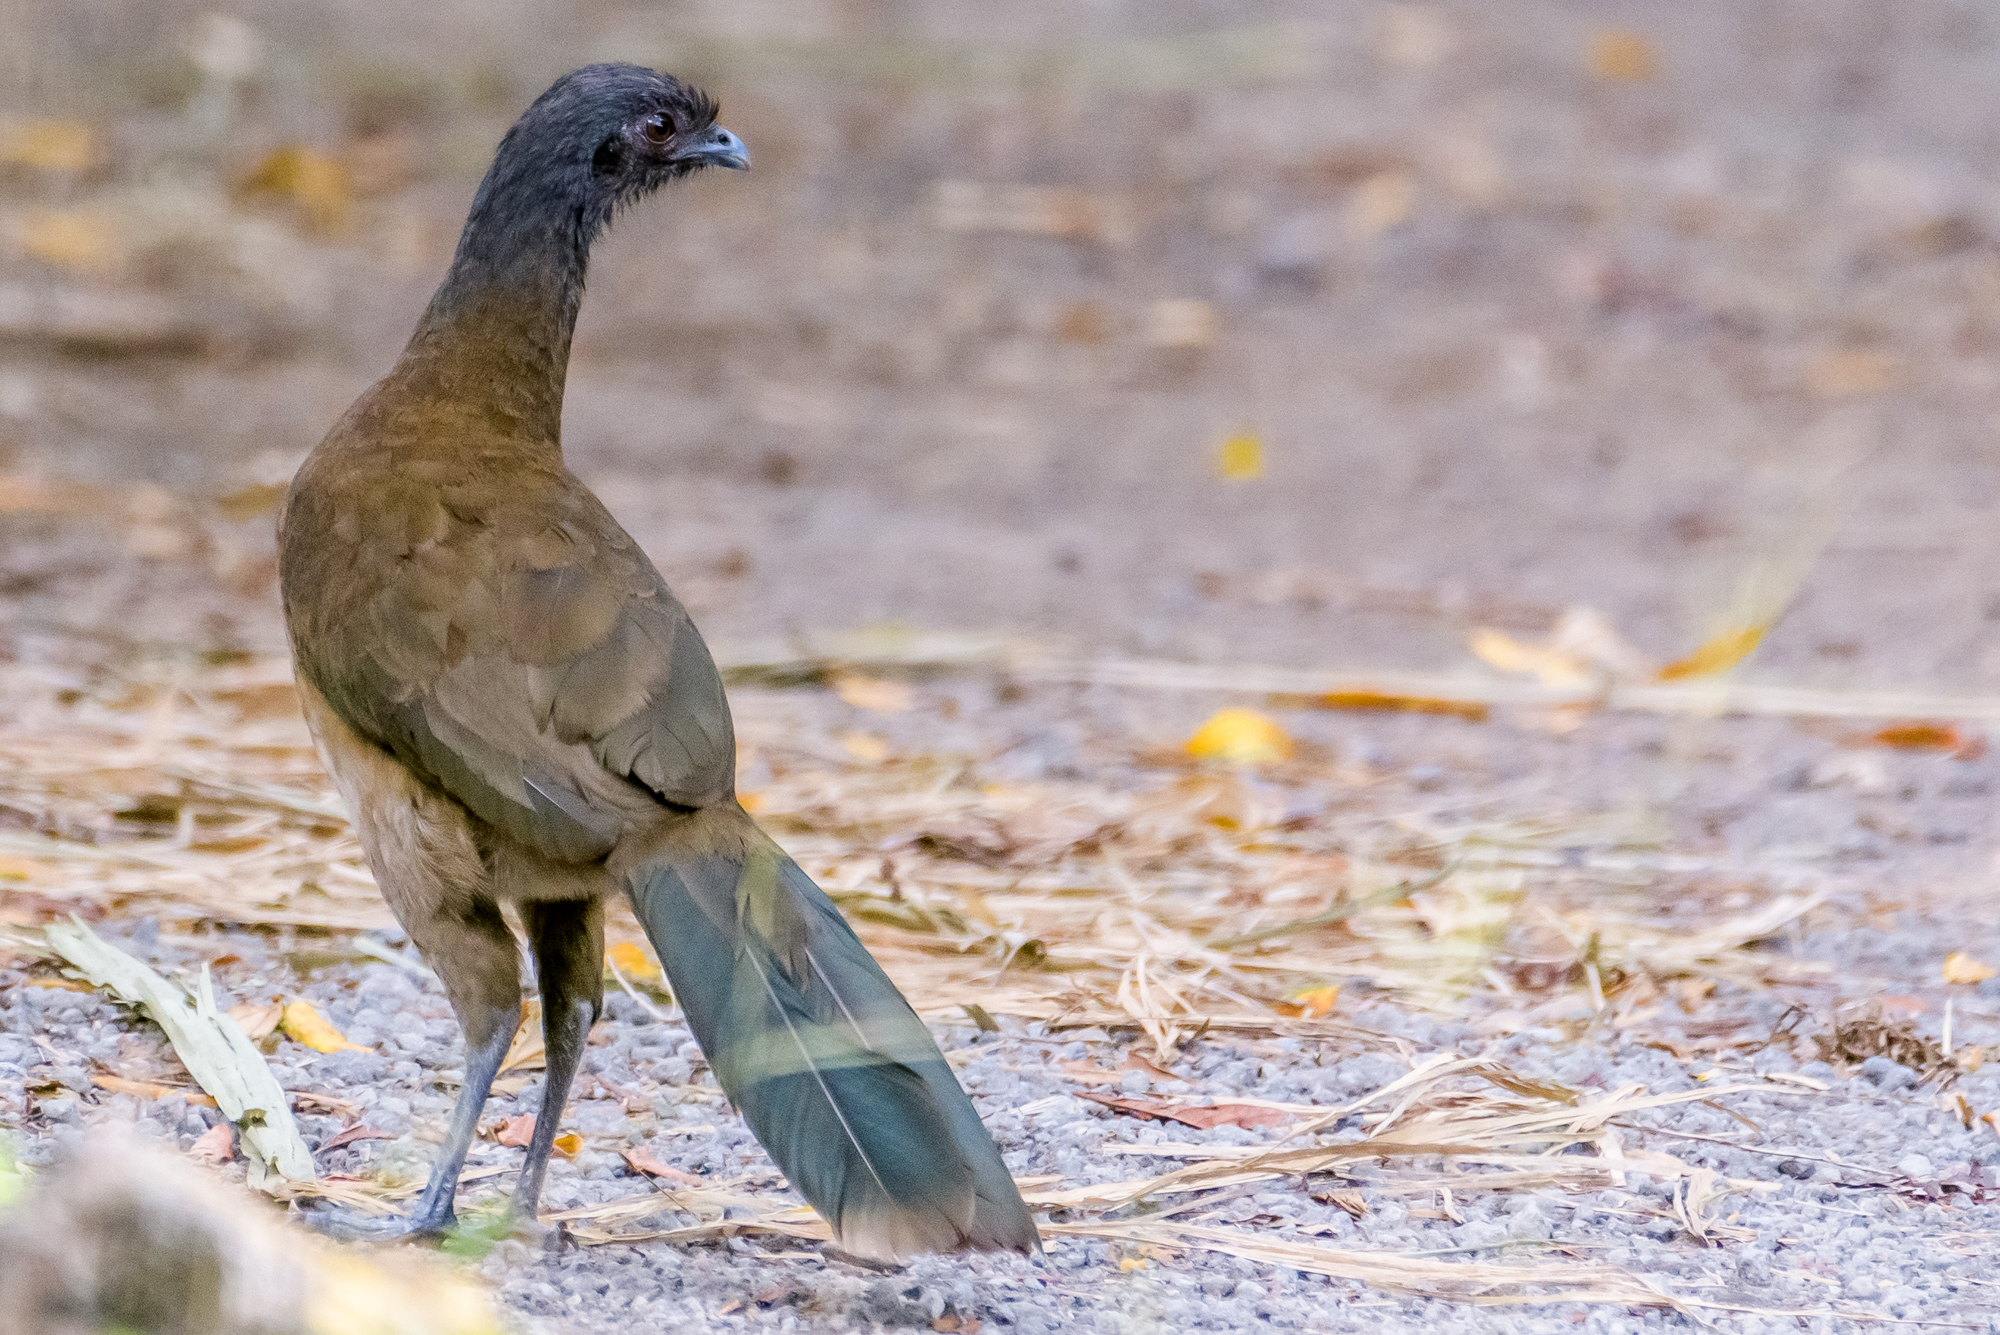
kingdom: Animalia
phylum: Chordata
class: Aves
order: Galliformes
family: Cracidae
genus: Ortalis
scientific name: Ortalis cinereiceps
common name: Grey-headed chachalaca
